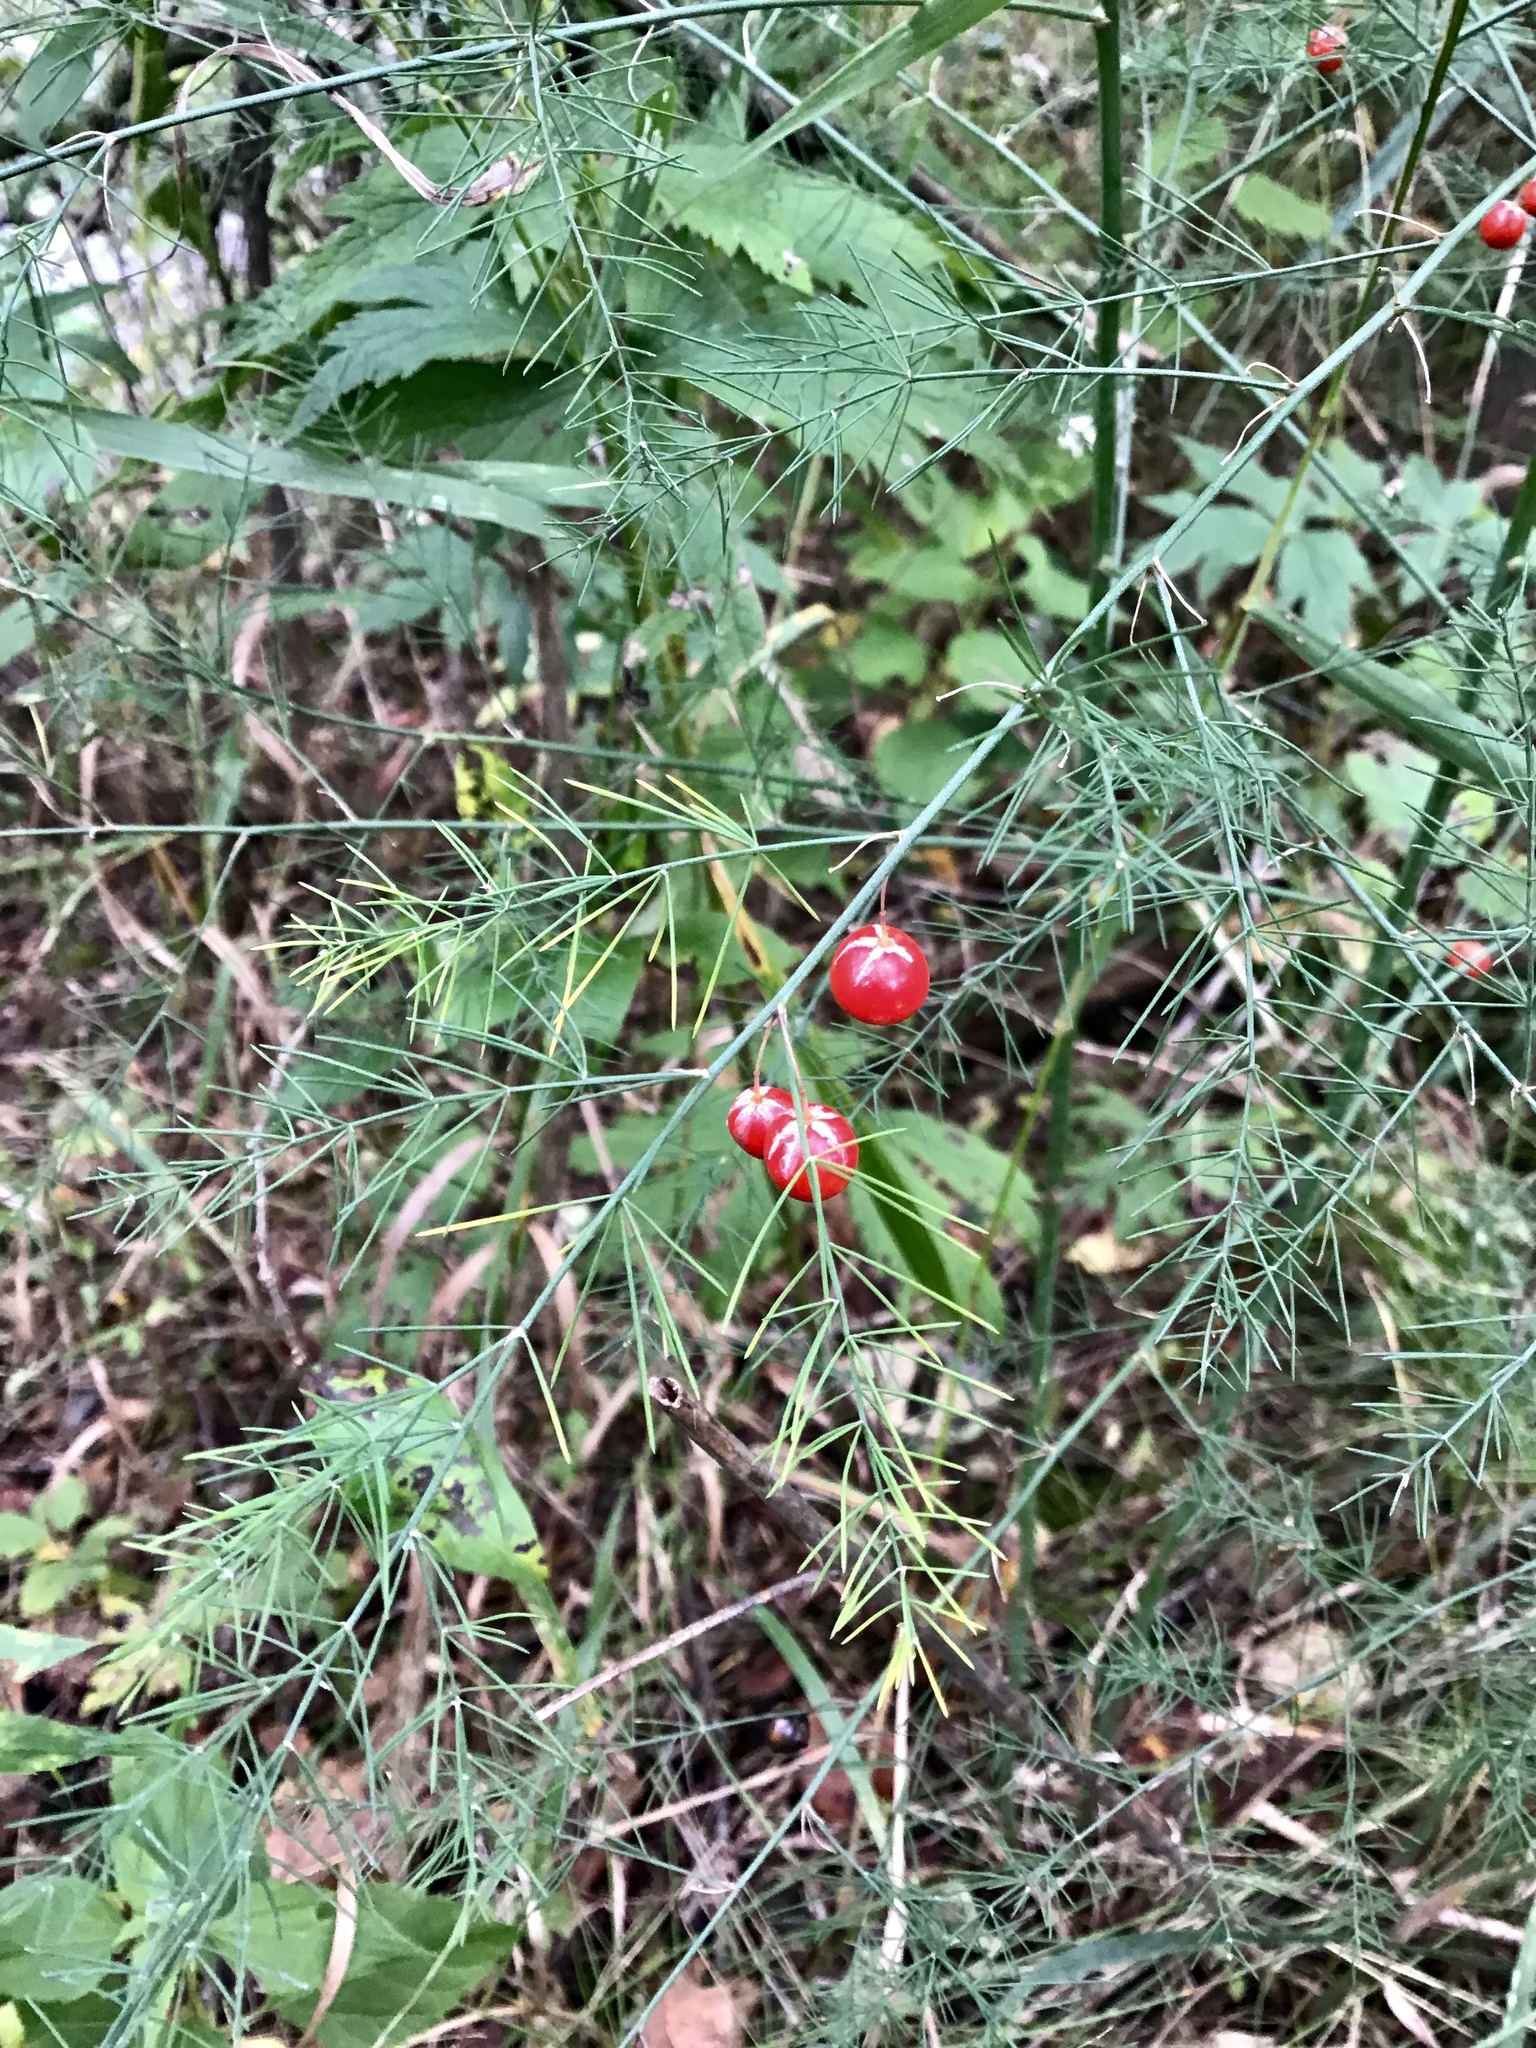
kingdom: Plantae
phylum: Tracheophyta
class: Liliopsida
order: Asparagales
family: Asparagaceae
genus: Asparagus
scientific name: Asparagus officinalis
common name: Garden asparagus
